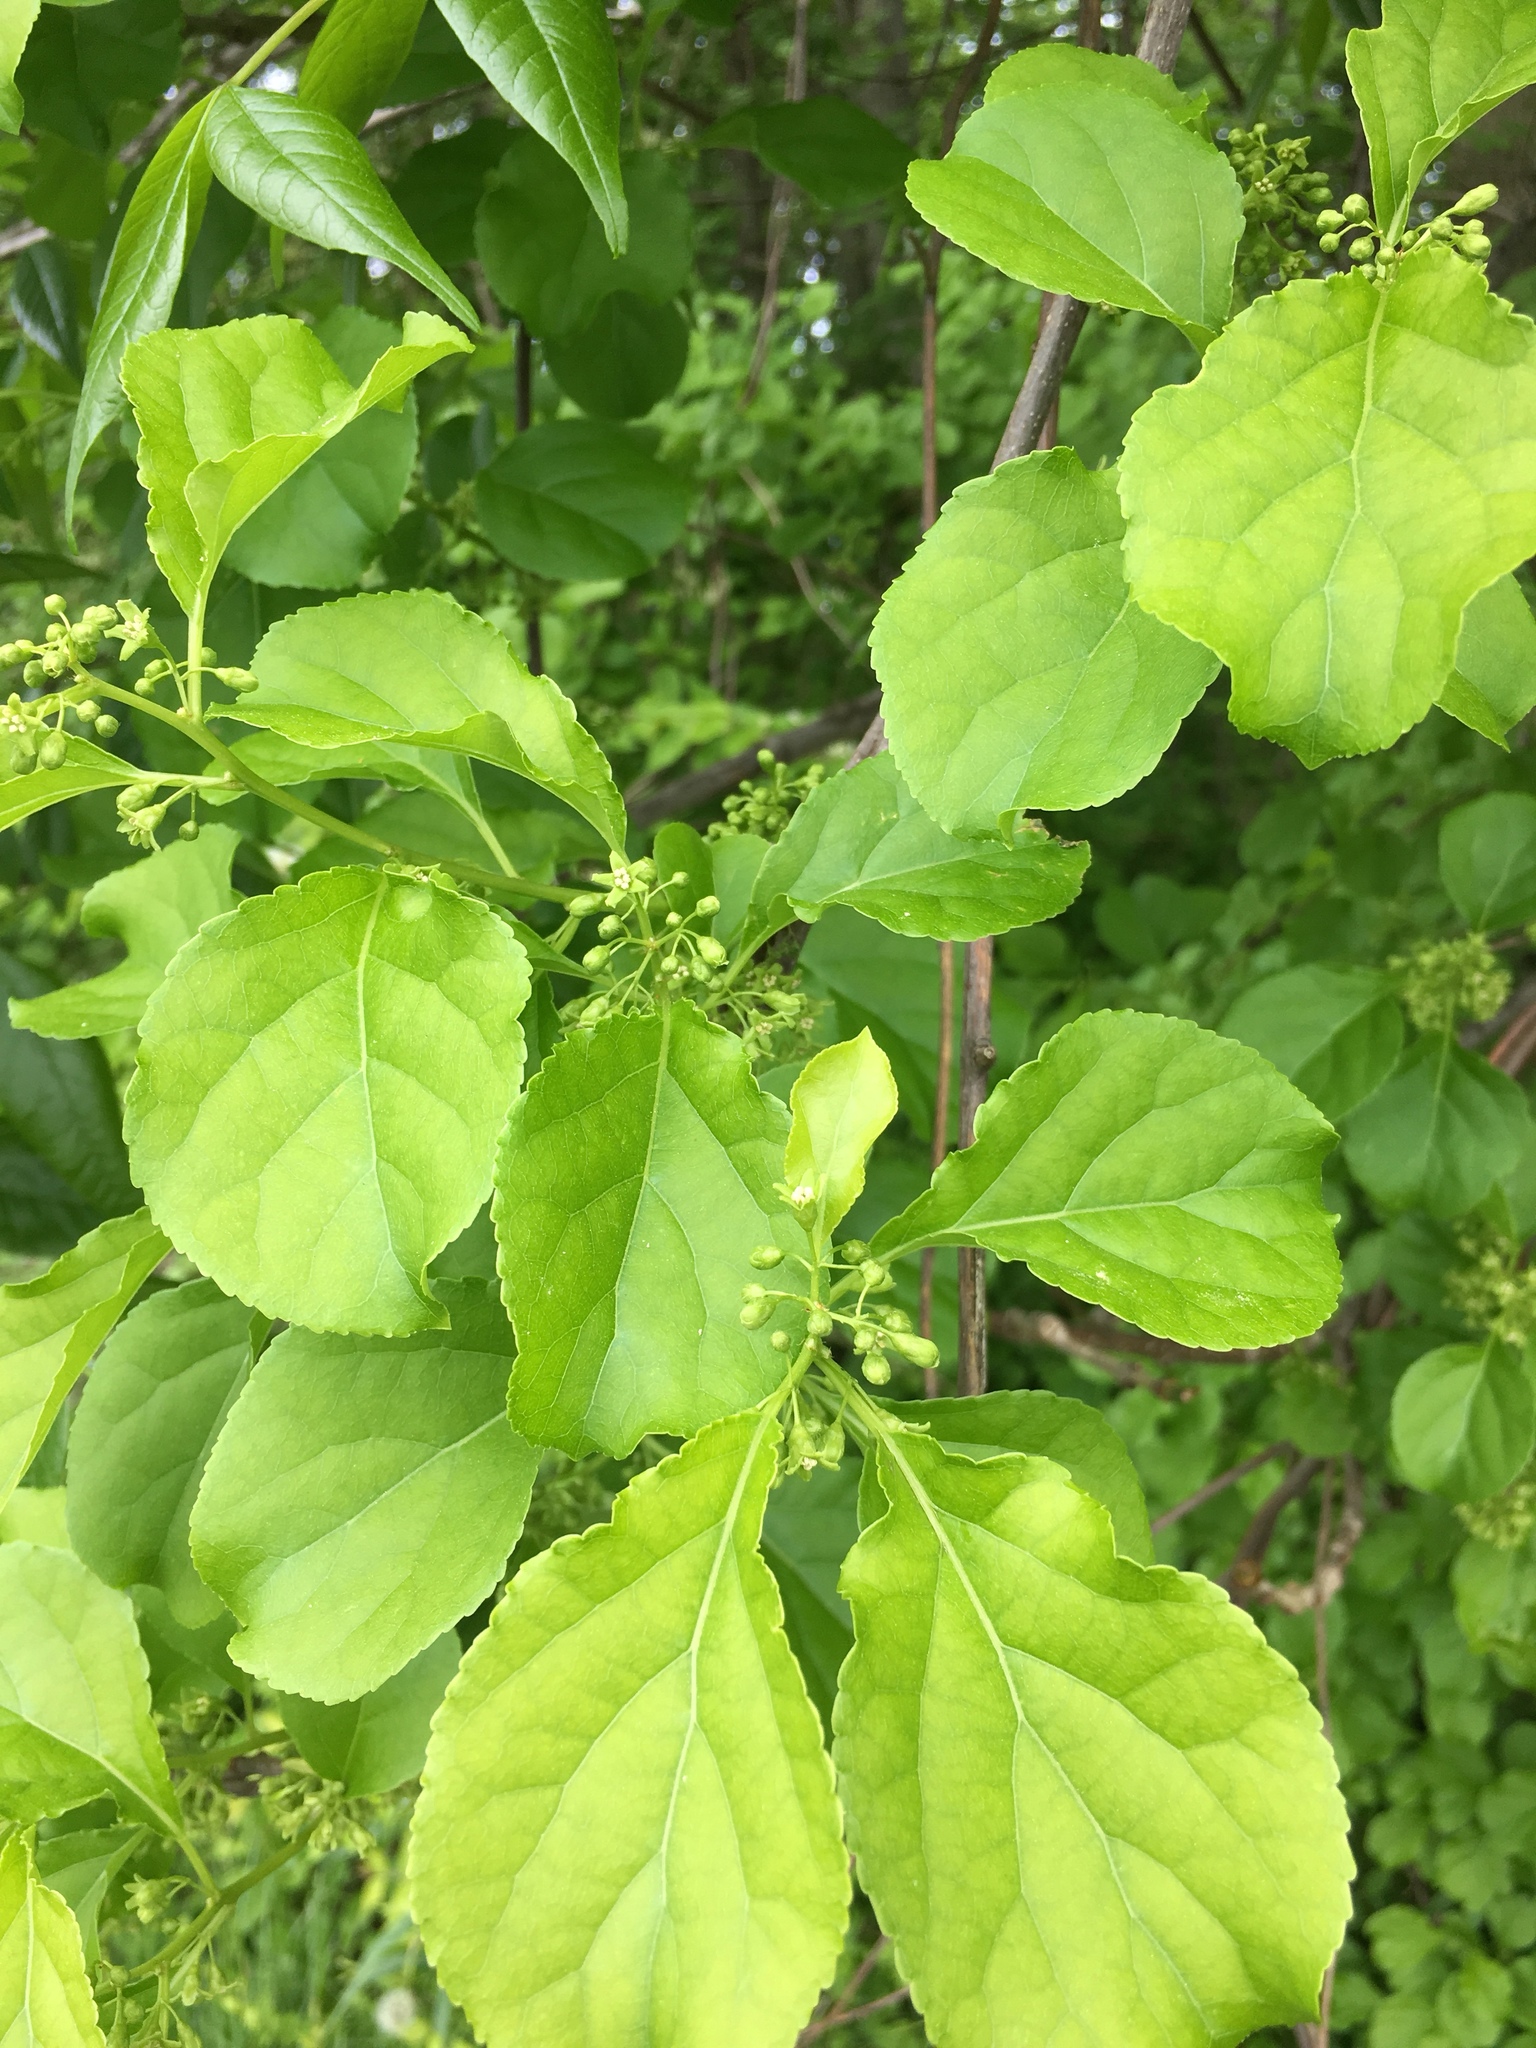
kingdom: Plantae
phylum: Tracheophyta
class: Magnoliopsida
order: Celastrales
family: Celastraceae
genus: Celastrus
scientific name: Celastrus orbiculatus
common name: Oriental bittersweet
